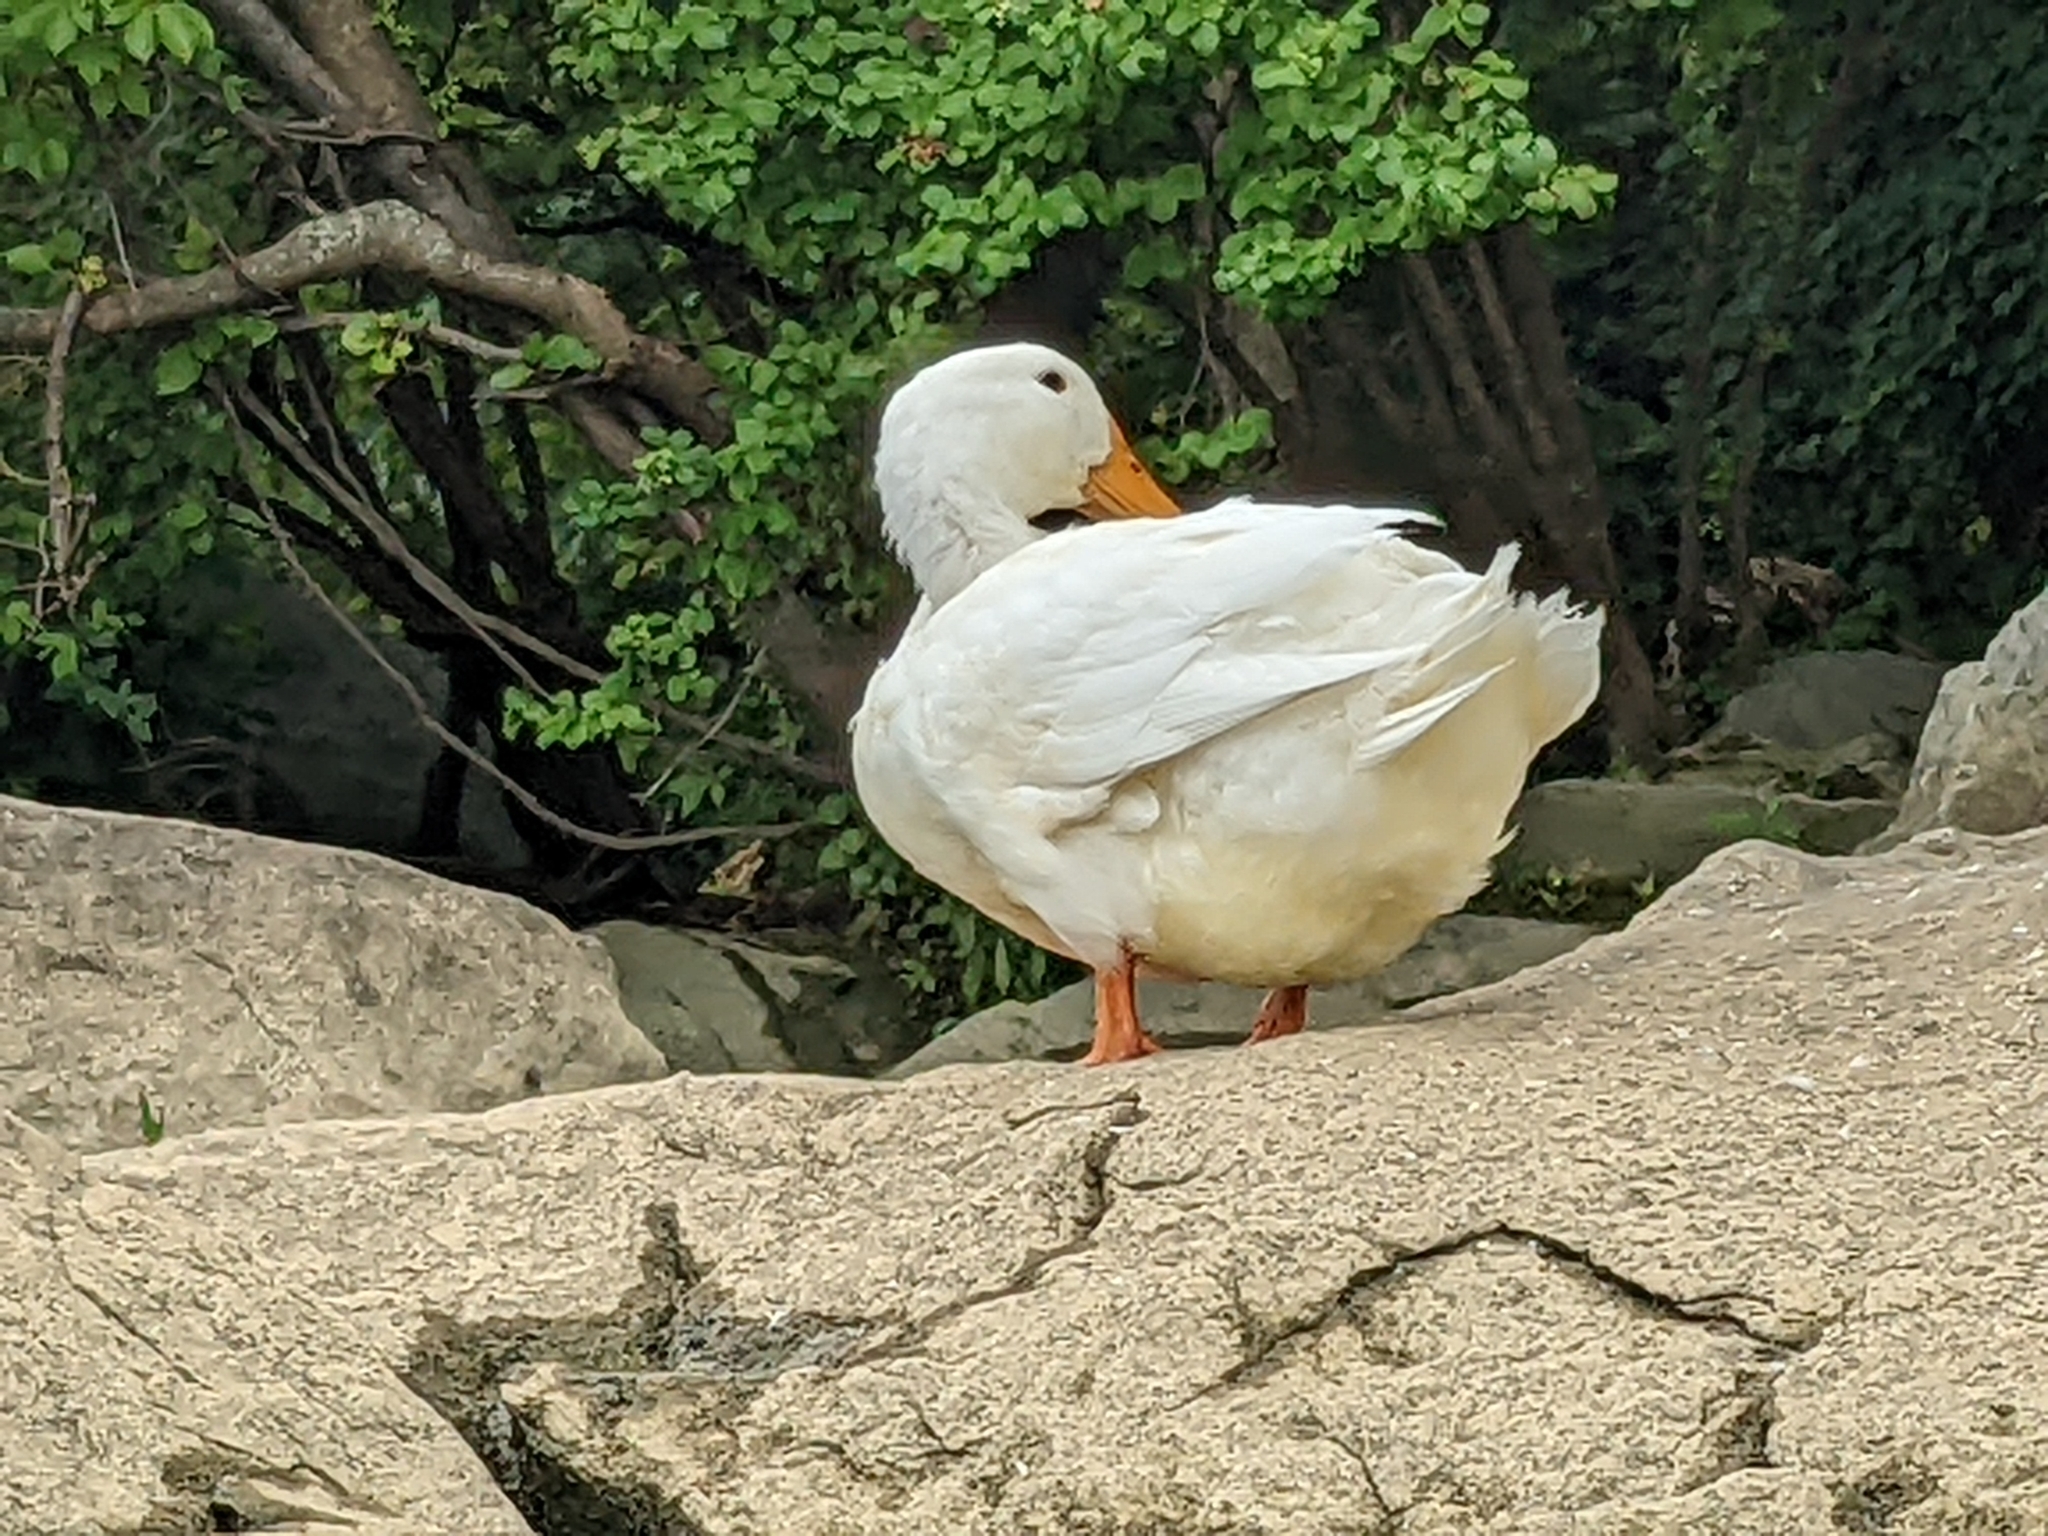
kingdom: Animalia
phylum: Chordata
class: Aves
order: Anseriformes
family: Anatidae
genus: Anas
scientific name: Anas platyrhynchos
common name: Mallard
